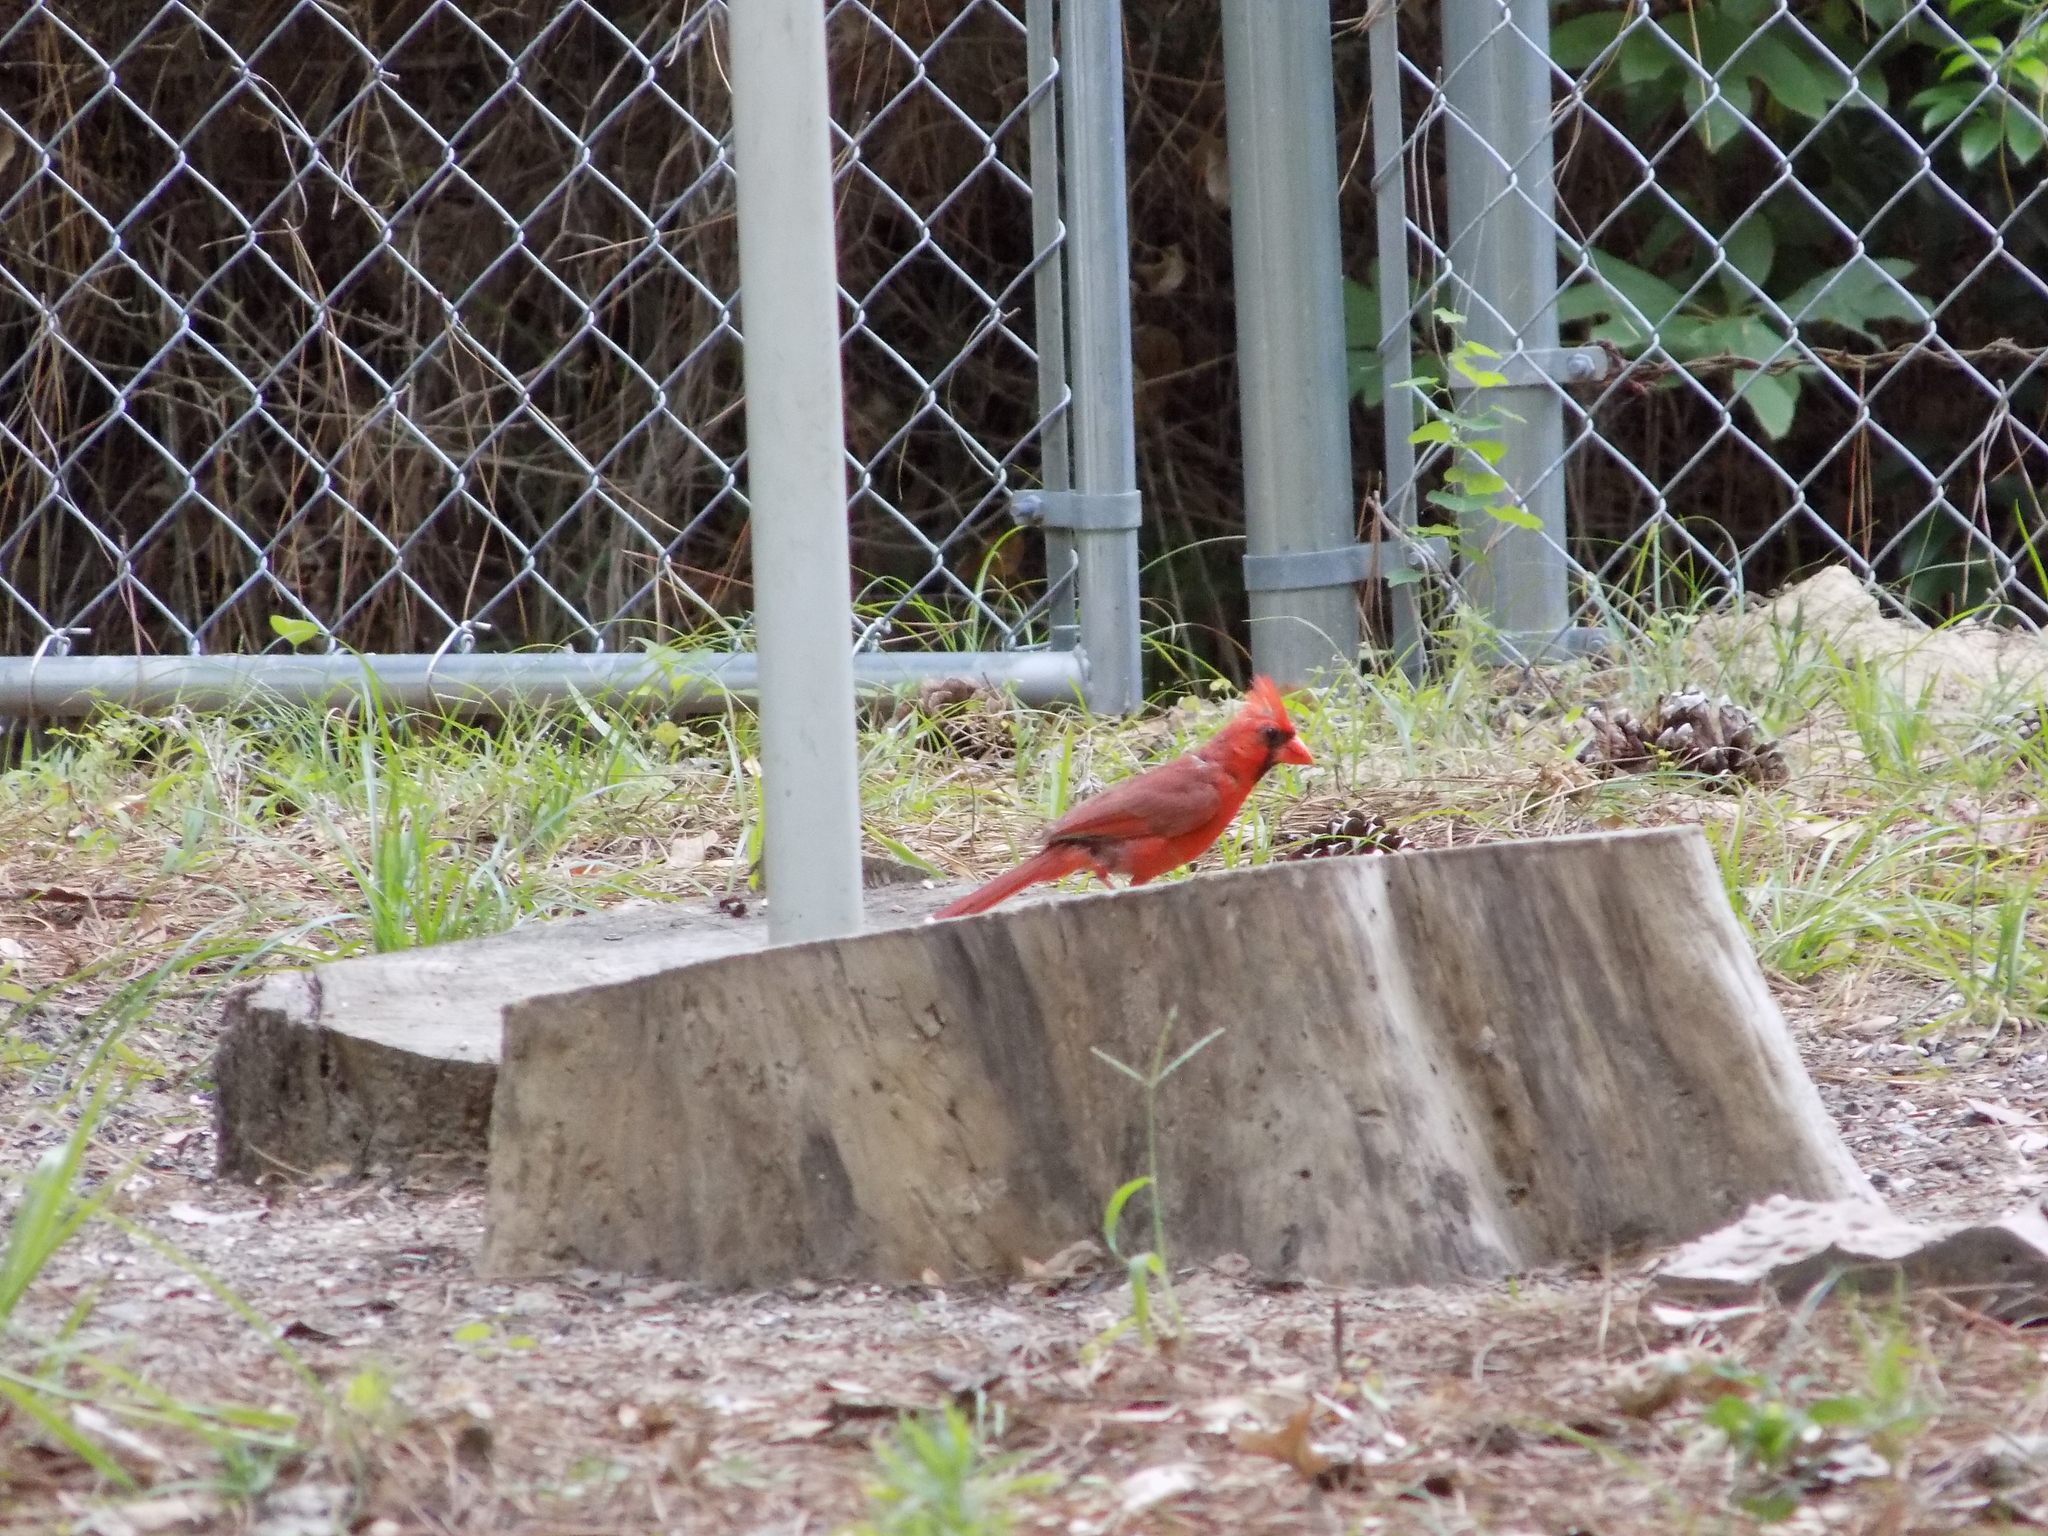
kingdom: Animalia
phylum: Chordata
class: Aves
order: Passeriformes
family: Cardinalidae
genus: Cardinalis
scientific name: Cardinalis cardinalis
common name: Northern cardinal
